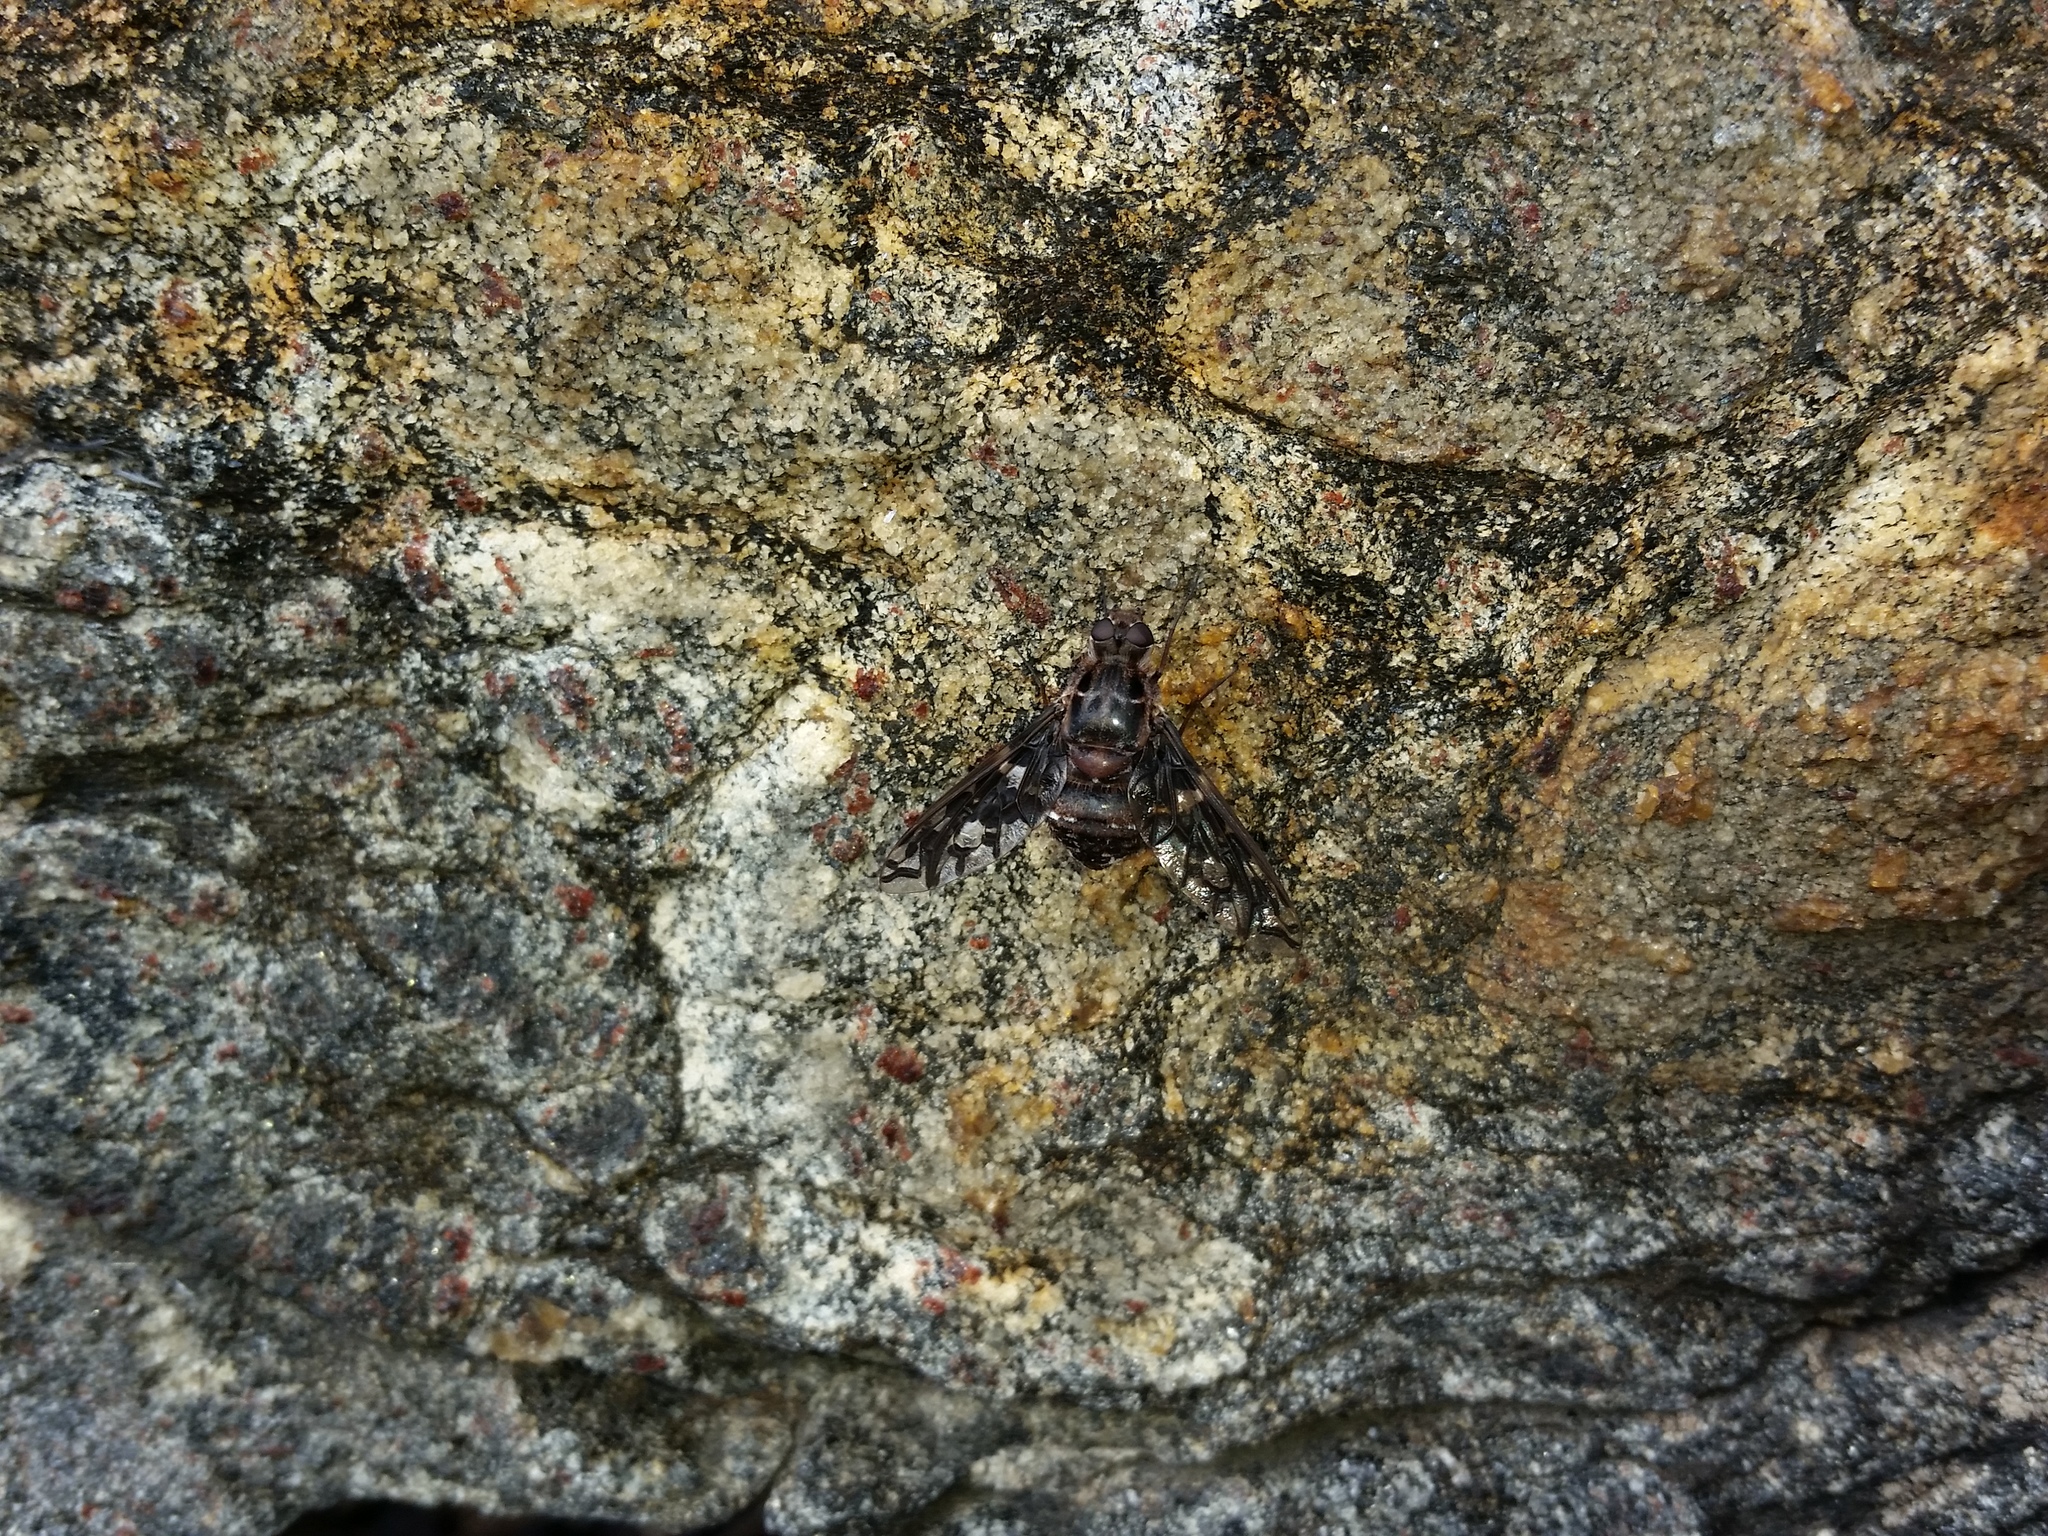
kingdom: Animalia
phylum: Arthropoda
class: Insecta
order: Diptera
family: Bombyliidae
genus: Xenox
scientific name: Xenox tigrinus
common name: Tiger bee fly
